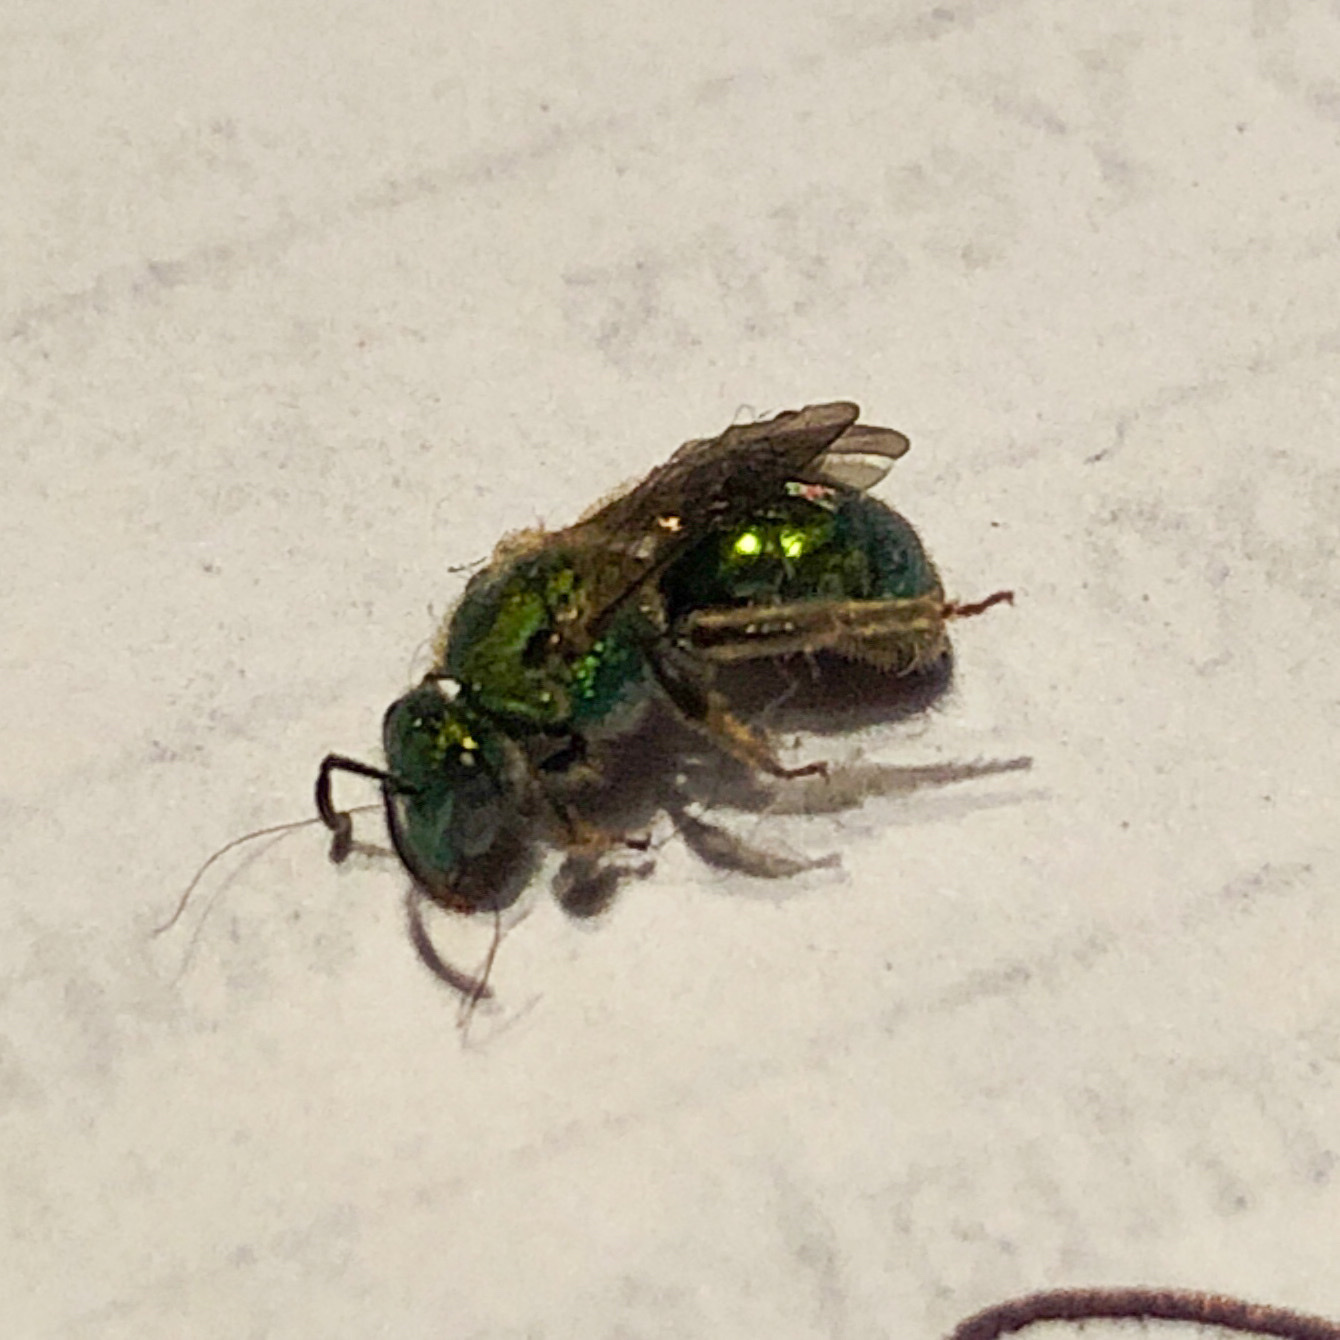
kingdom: Animalia
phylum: Arthropoda
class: Insecta
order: Hymenoptera
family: Halictidae
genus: Augochlorella
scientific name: Augochlorella aurata
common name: Golden sweat bee
